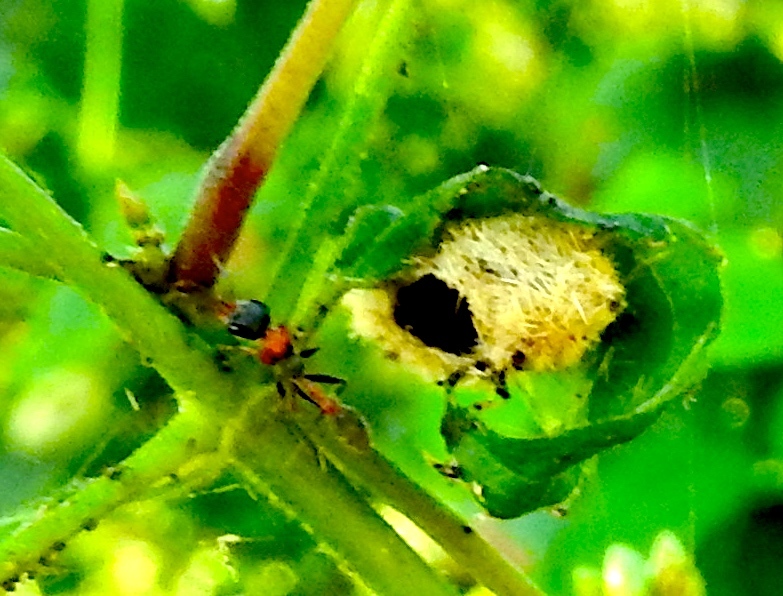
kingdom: Animalia
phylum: Arthropoda
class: Insecta
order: Hymenoptera
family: Formicidae
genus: Pseudomyrmex
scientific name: Pseudomyrmex gracilis
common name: Graceful twig ant
